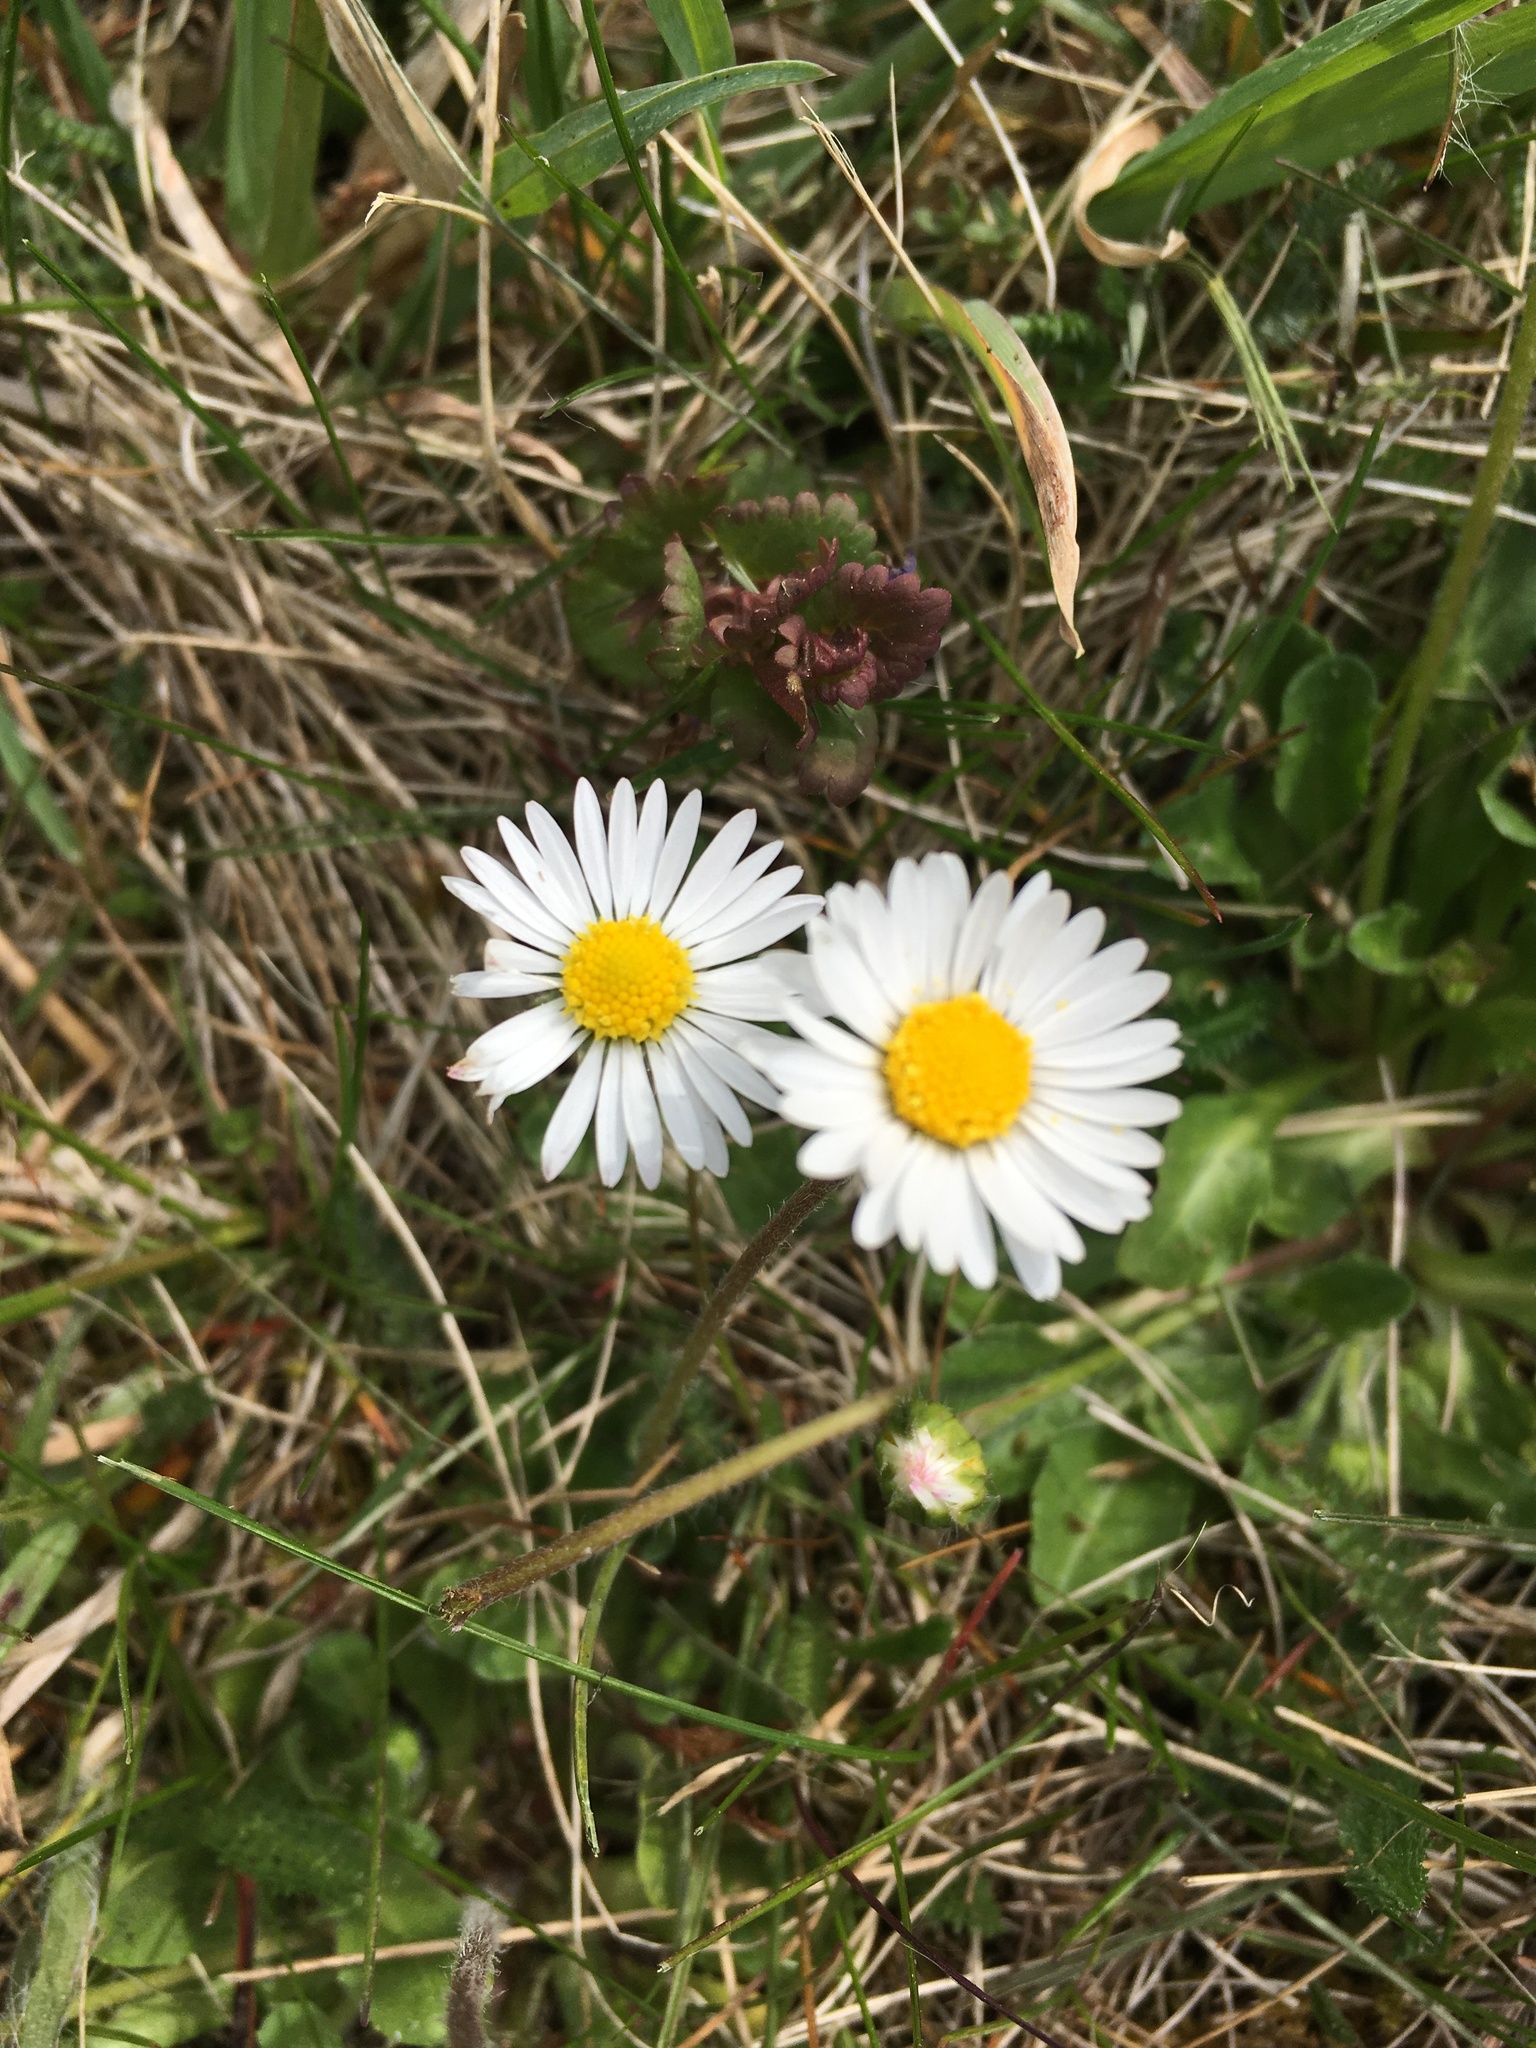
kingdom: Plantae
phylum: Tracheophyta
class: Magnoliopsida
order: Asterales
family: Asteraceae
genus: Bellis
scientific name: Bellis perennis
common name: Lawndaisy
